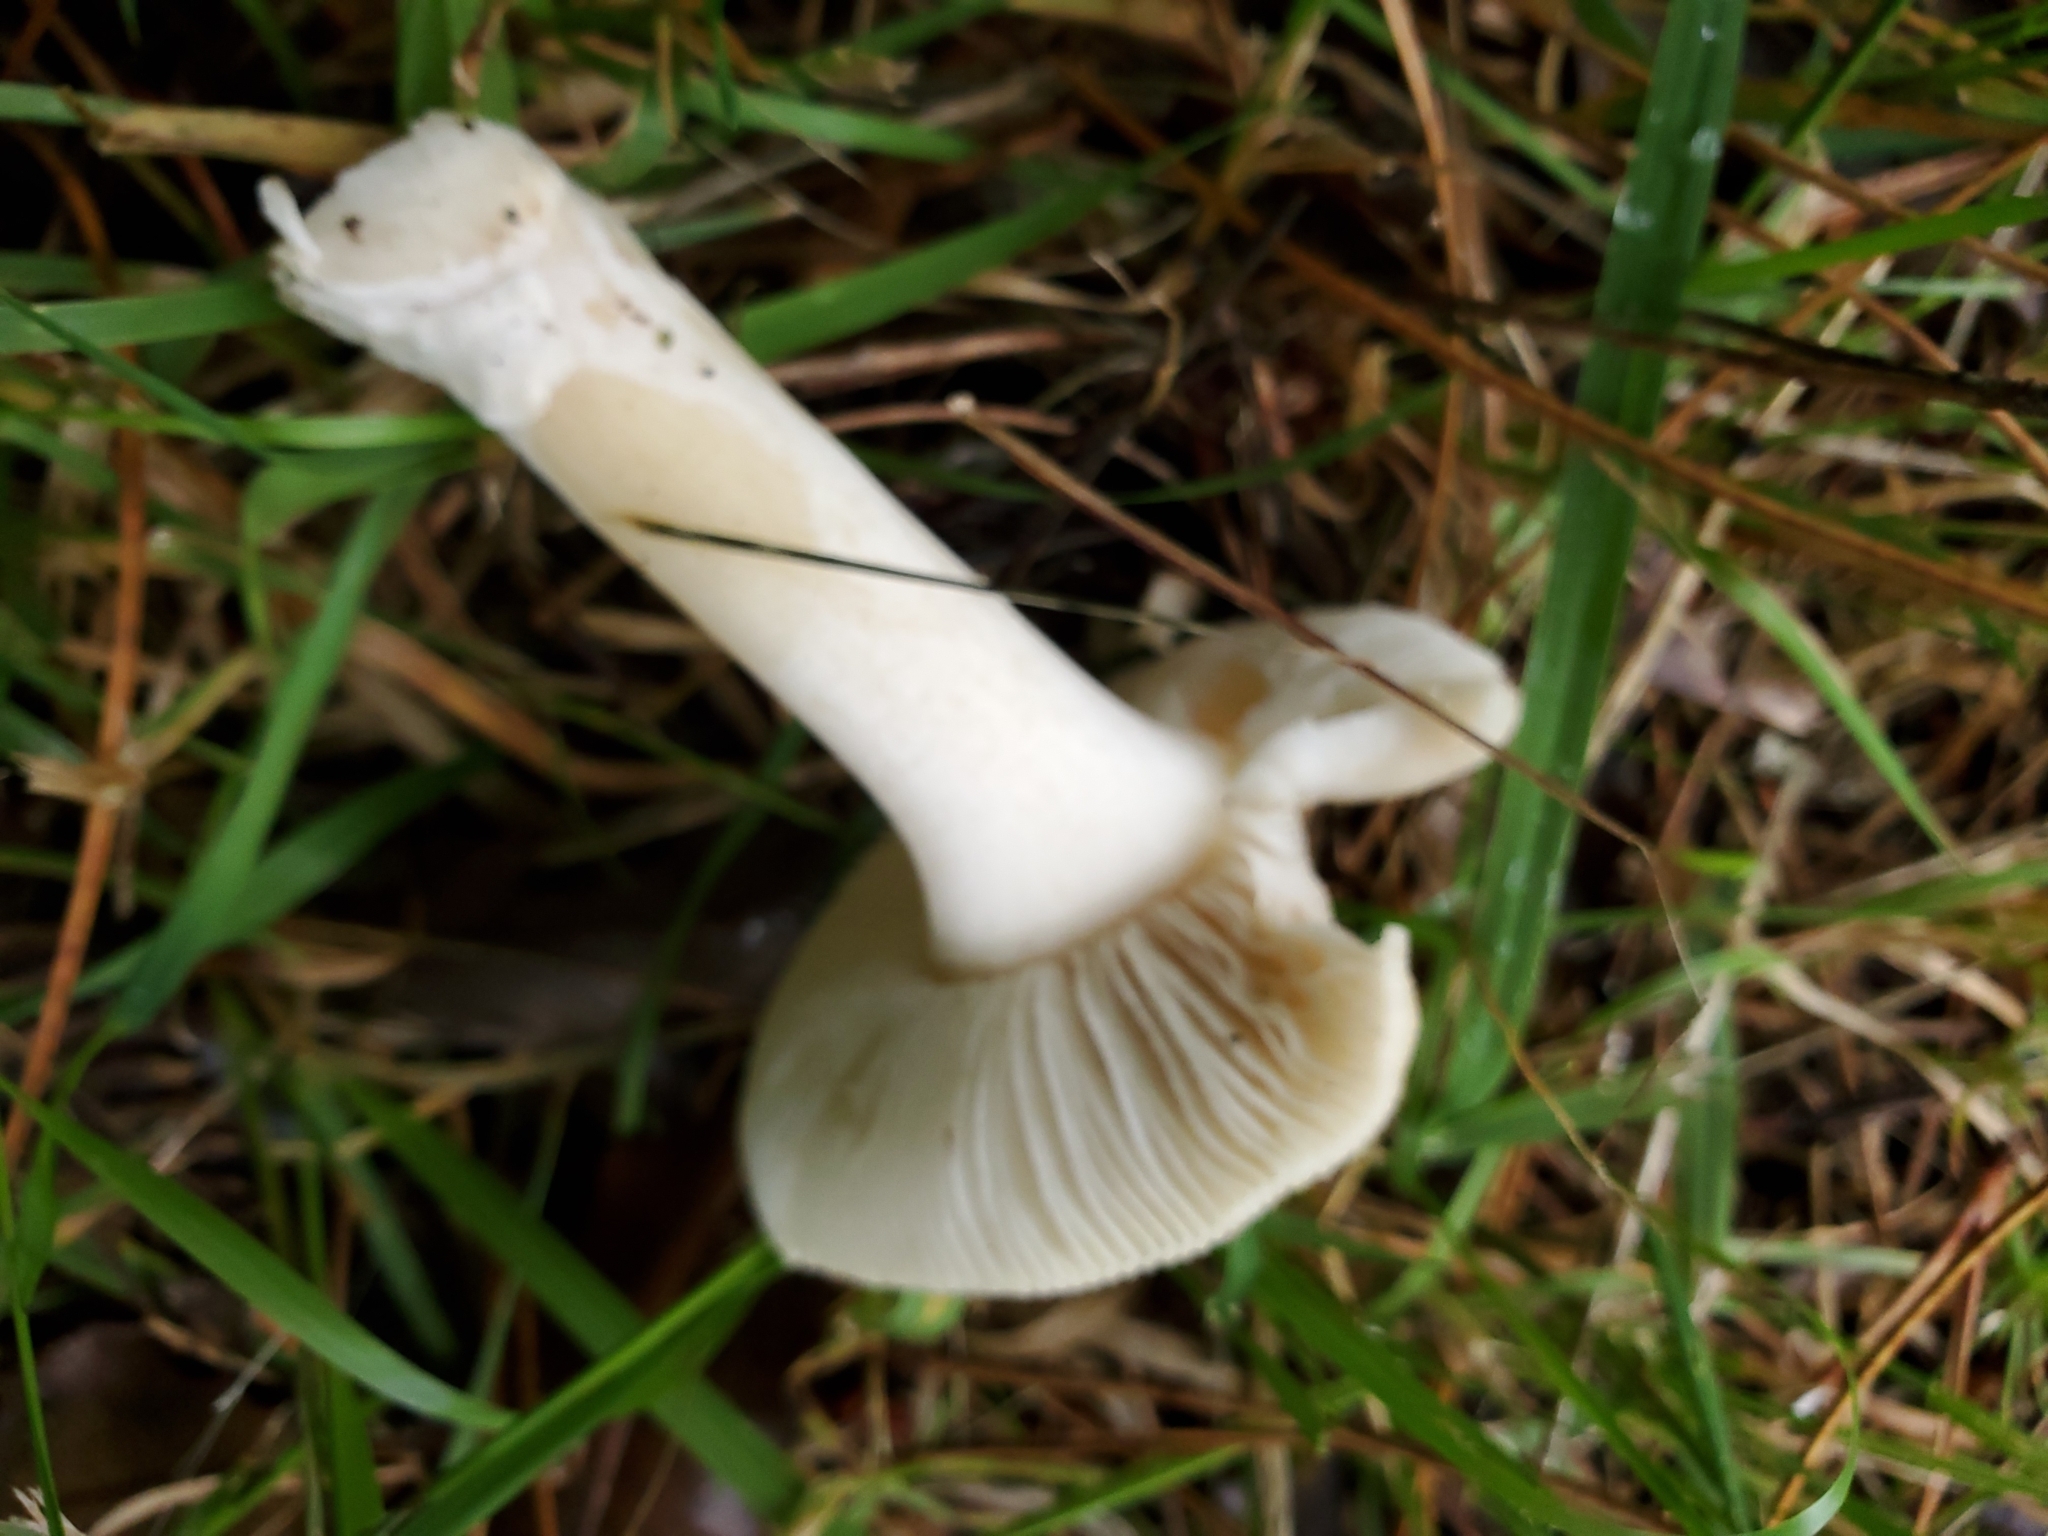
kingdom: Fungi
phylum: Basidiomycota
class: Agaricomycetes
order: Agaricales
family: Amanitaceae
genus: Amanita
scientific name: Amanita gemmata
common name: Jewelled amanita
